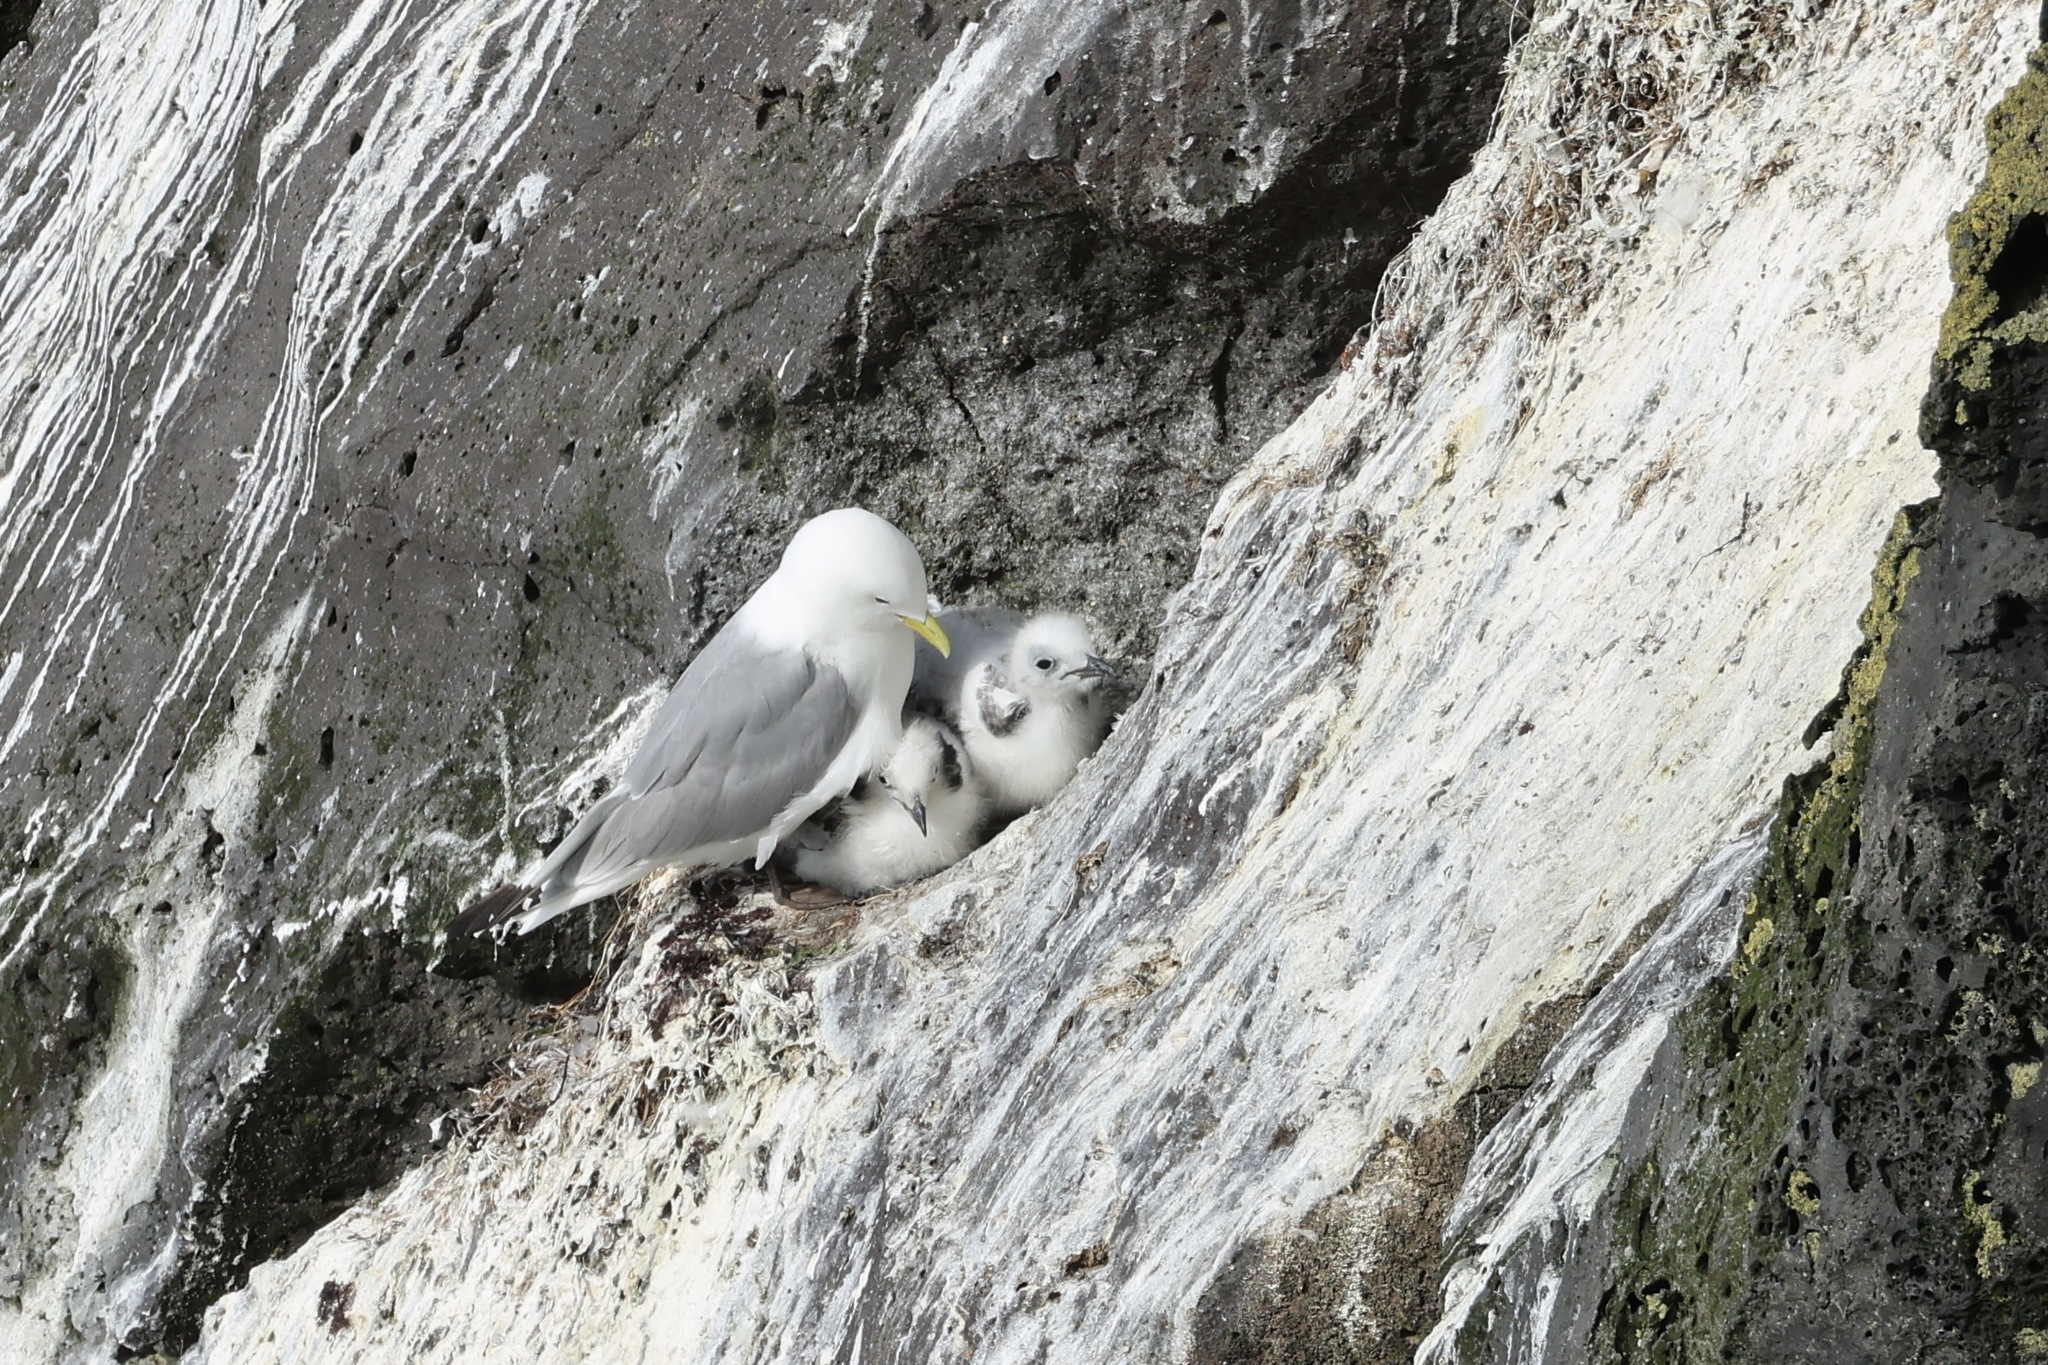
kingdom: Animalia
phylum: Chordata
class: Aves
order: Charadriiformes
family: Laridae
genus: Rissa
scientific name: Rissa tridactyla
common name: Black-legged kittiwake
